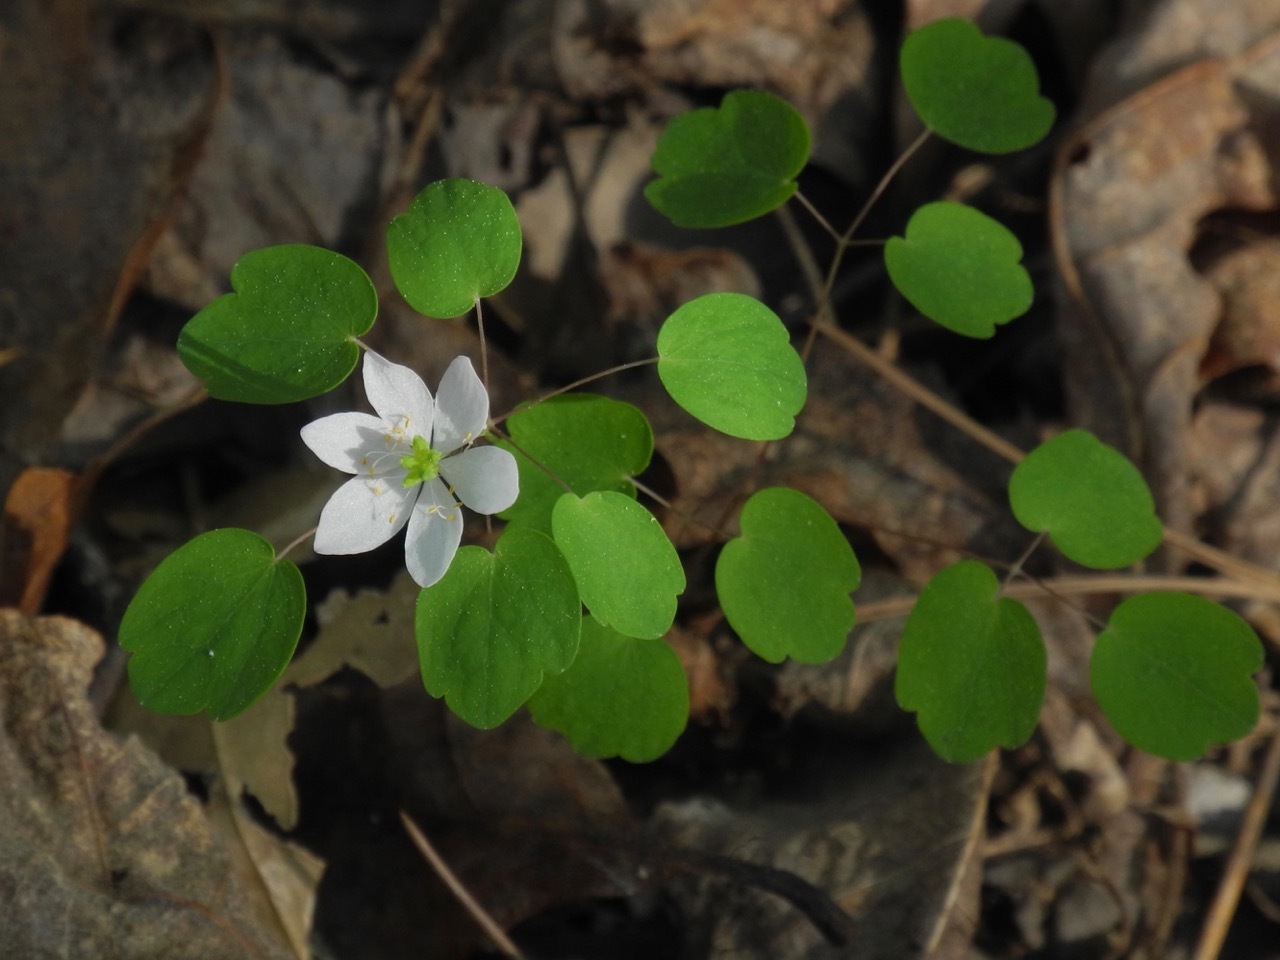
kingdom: Plantae
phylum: Tracheophyta
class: Magnoliopsida
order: Ranunculales
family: Ranunculaceae
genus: Thalictrum
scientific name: Thalictrum thalictroides
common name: Rue-anemone
